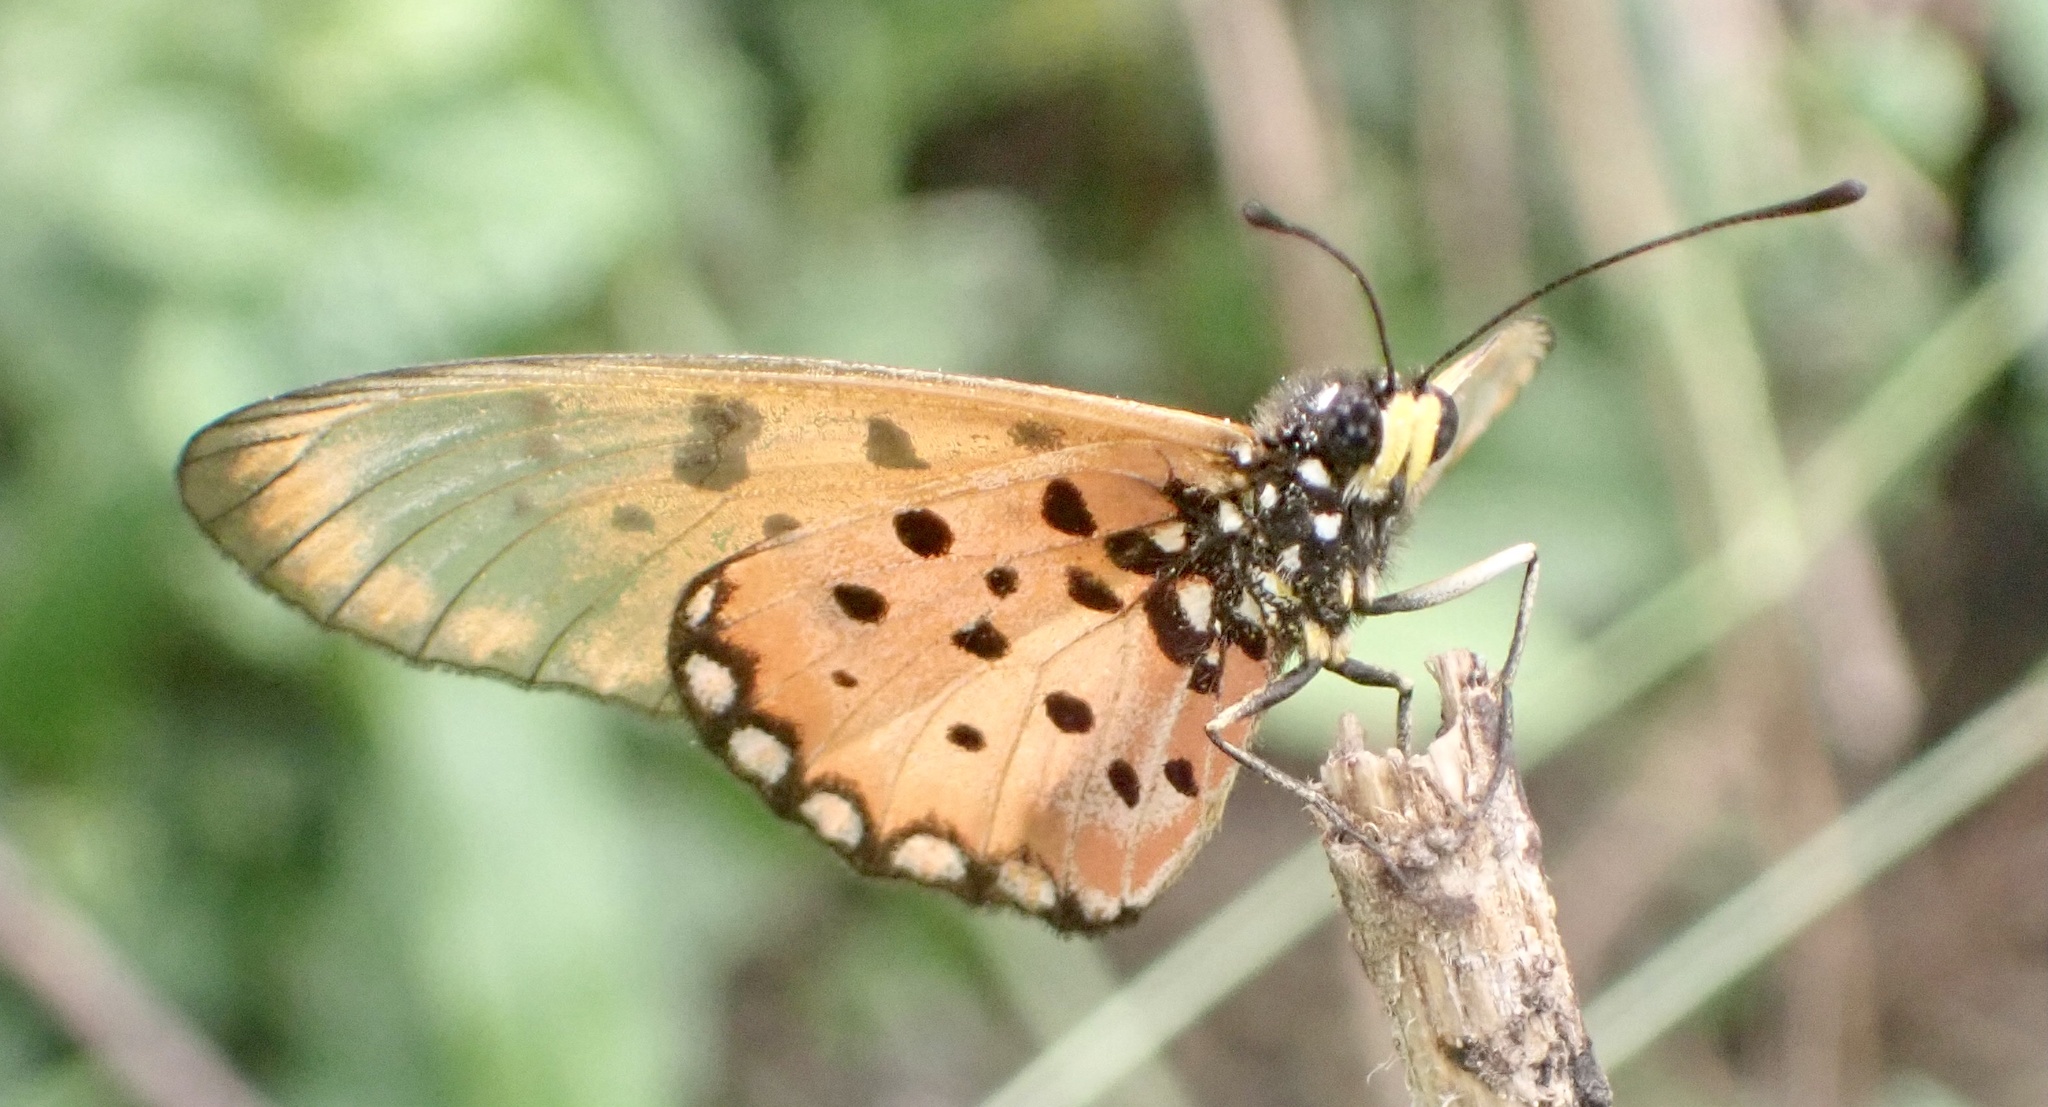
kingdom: Animalia
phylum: Arthropoda
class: Insecta
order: Lepidoptera
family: Nymphalidae
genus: Acraea
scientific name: Acraea neobule
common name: Dancing acraea
